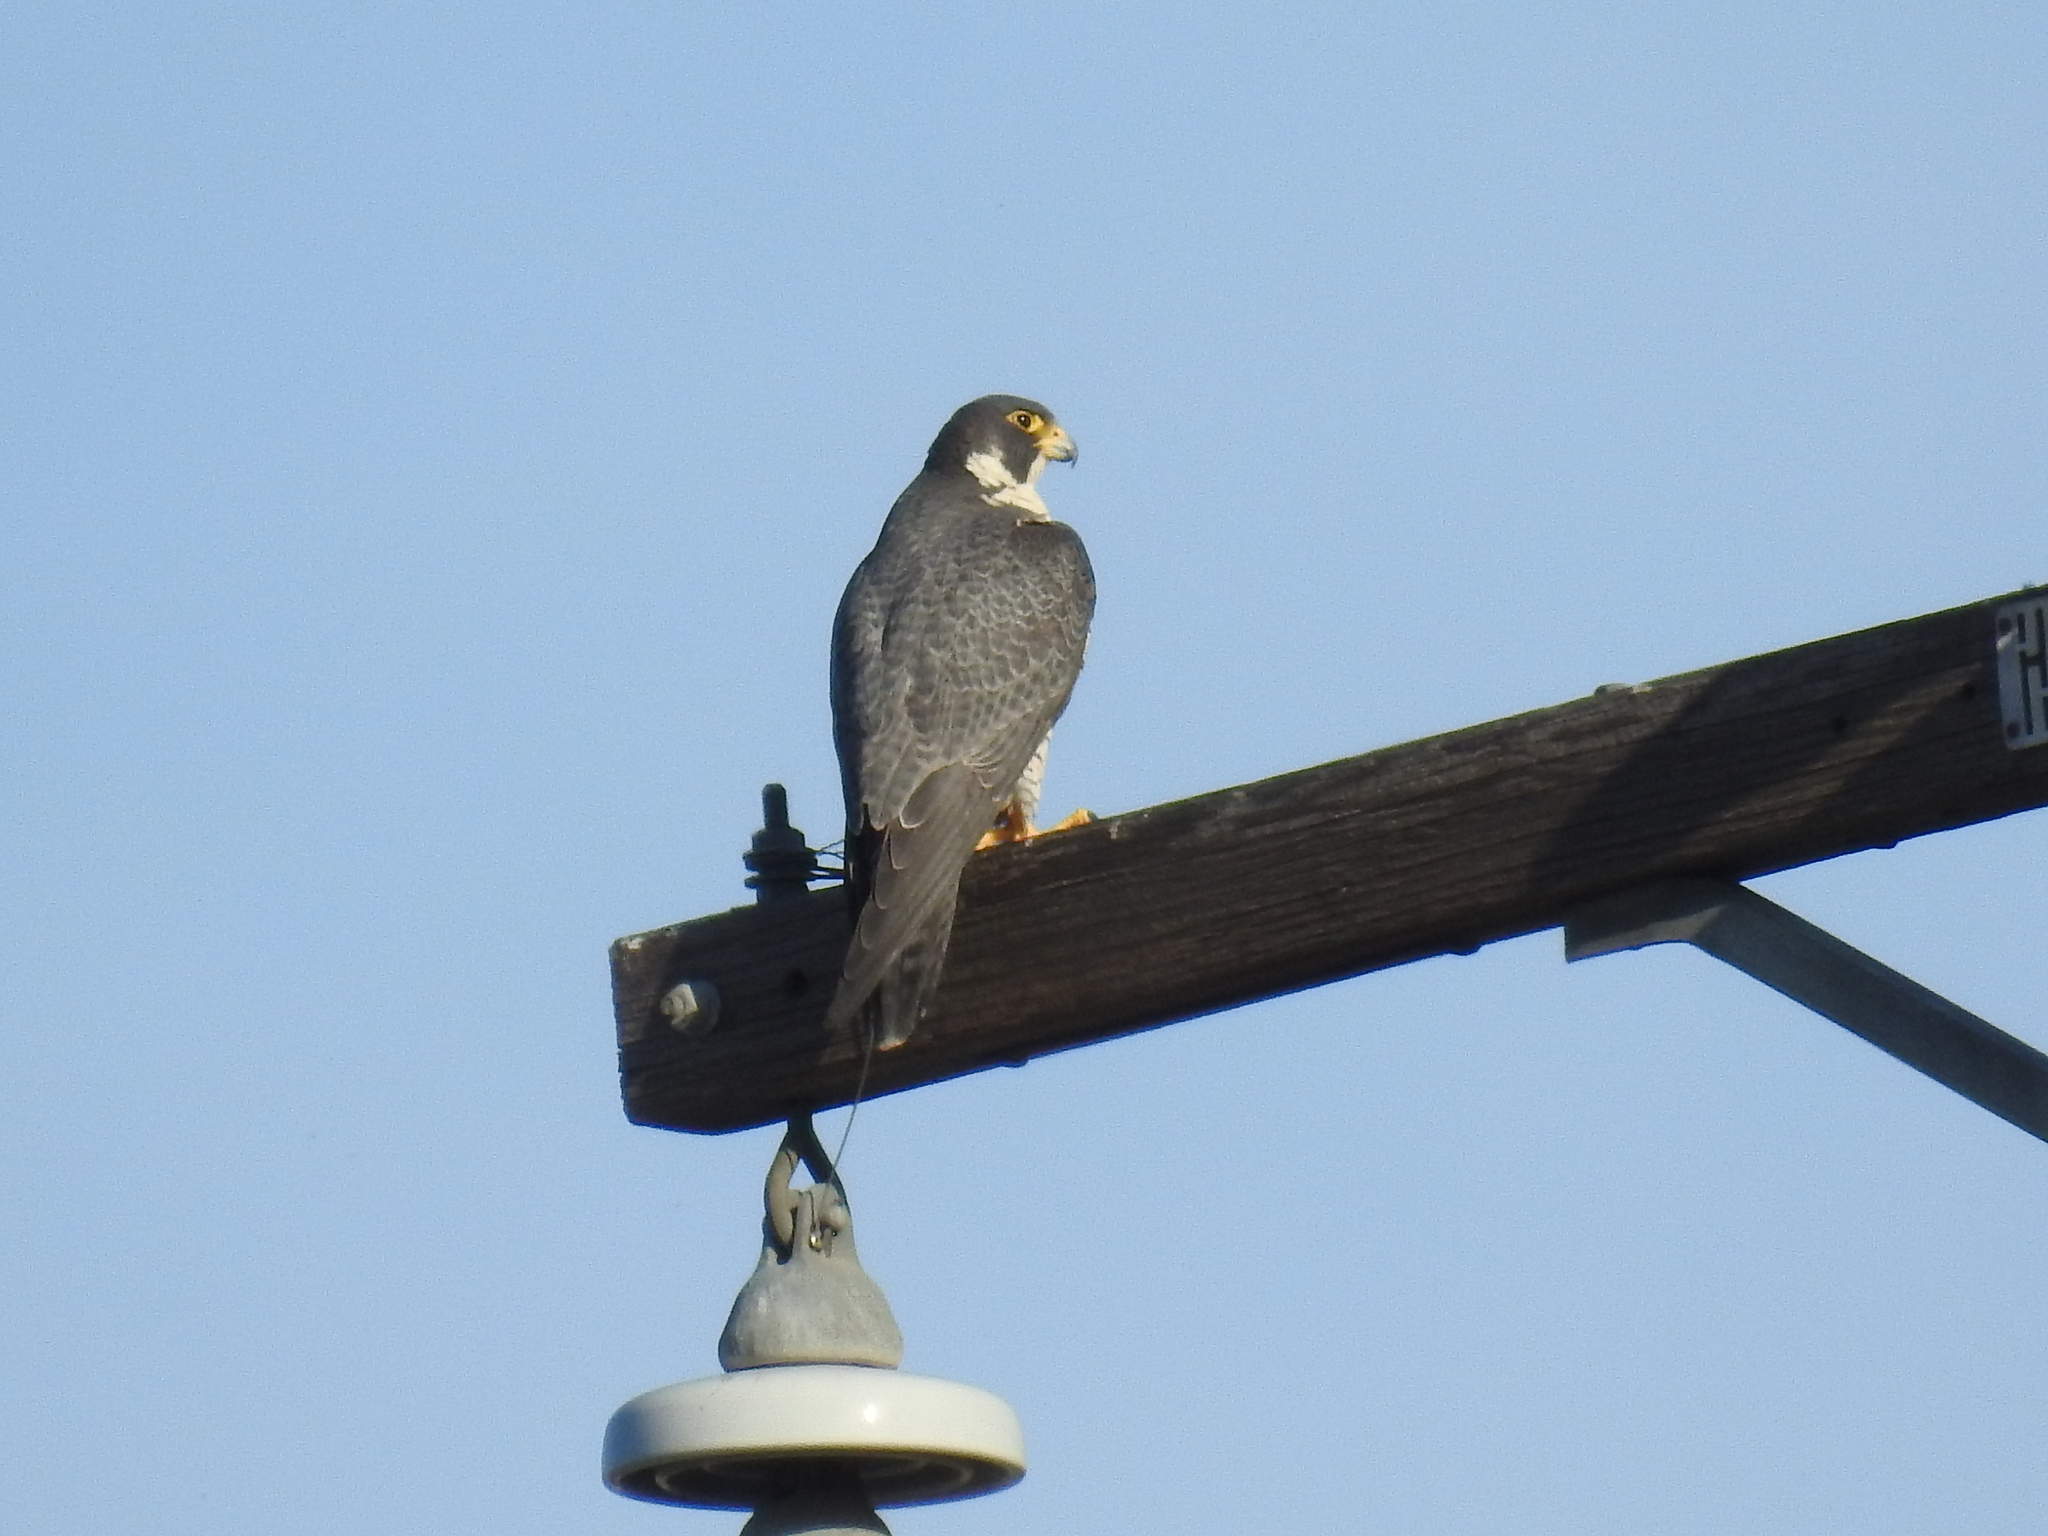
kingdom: Animalia
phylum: Chordata
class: Aves
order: Falconiformes
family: Falconidae
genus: Falco
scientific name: Falco peregrinus
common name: Peregrine falcon
